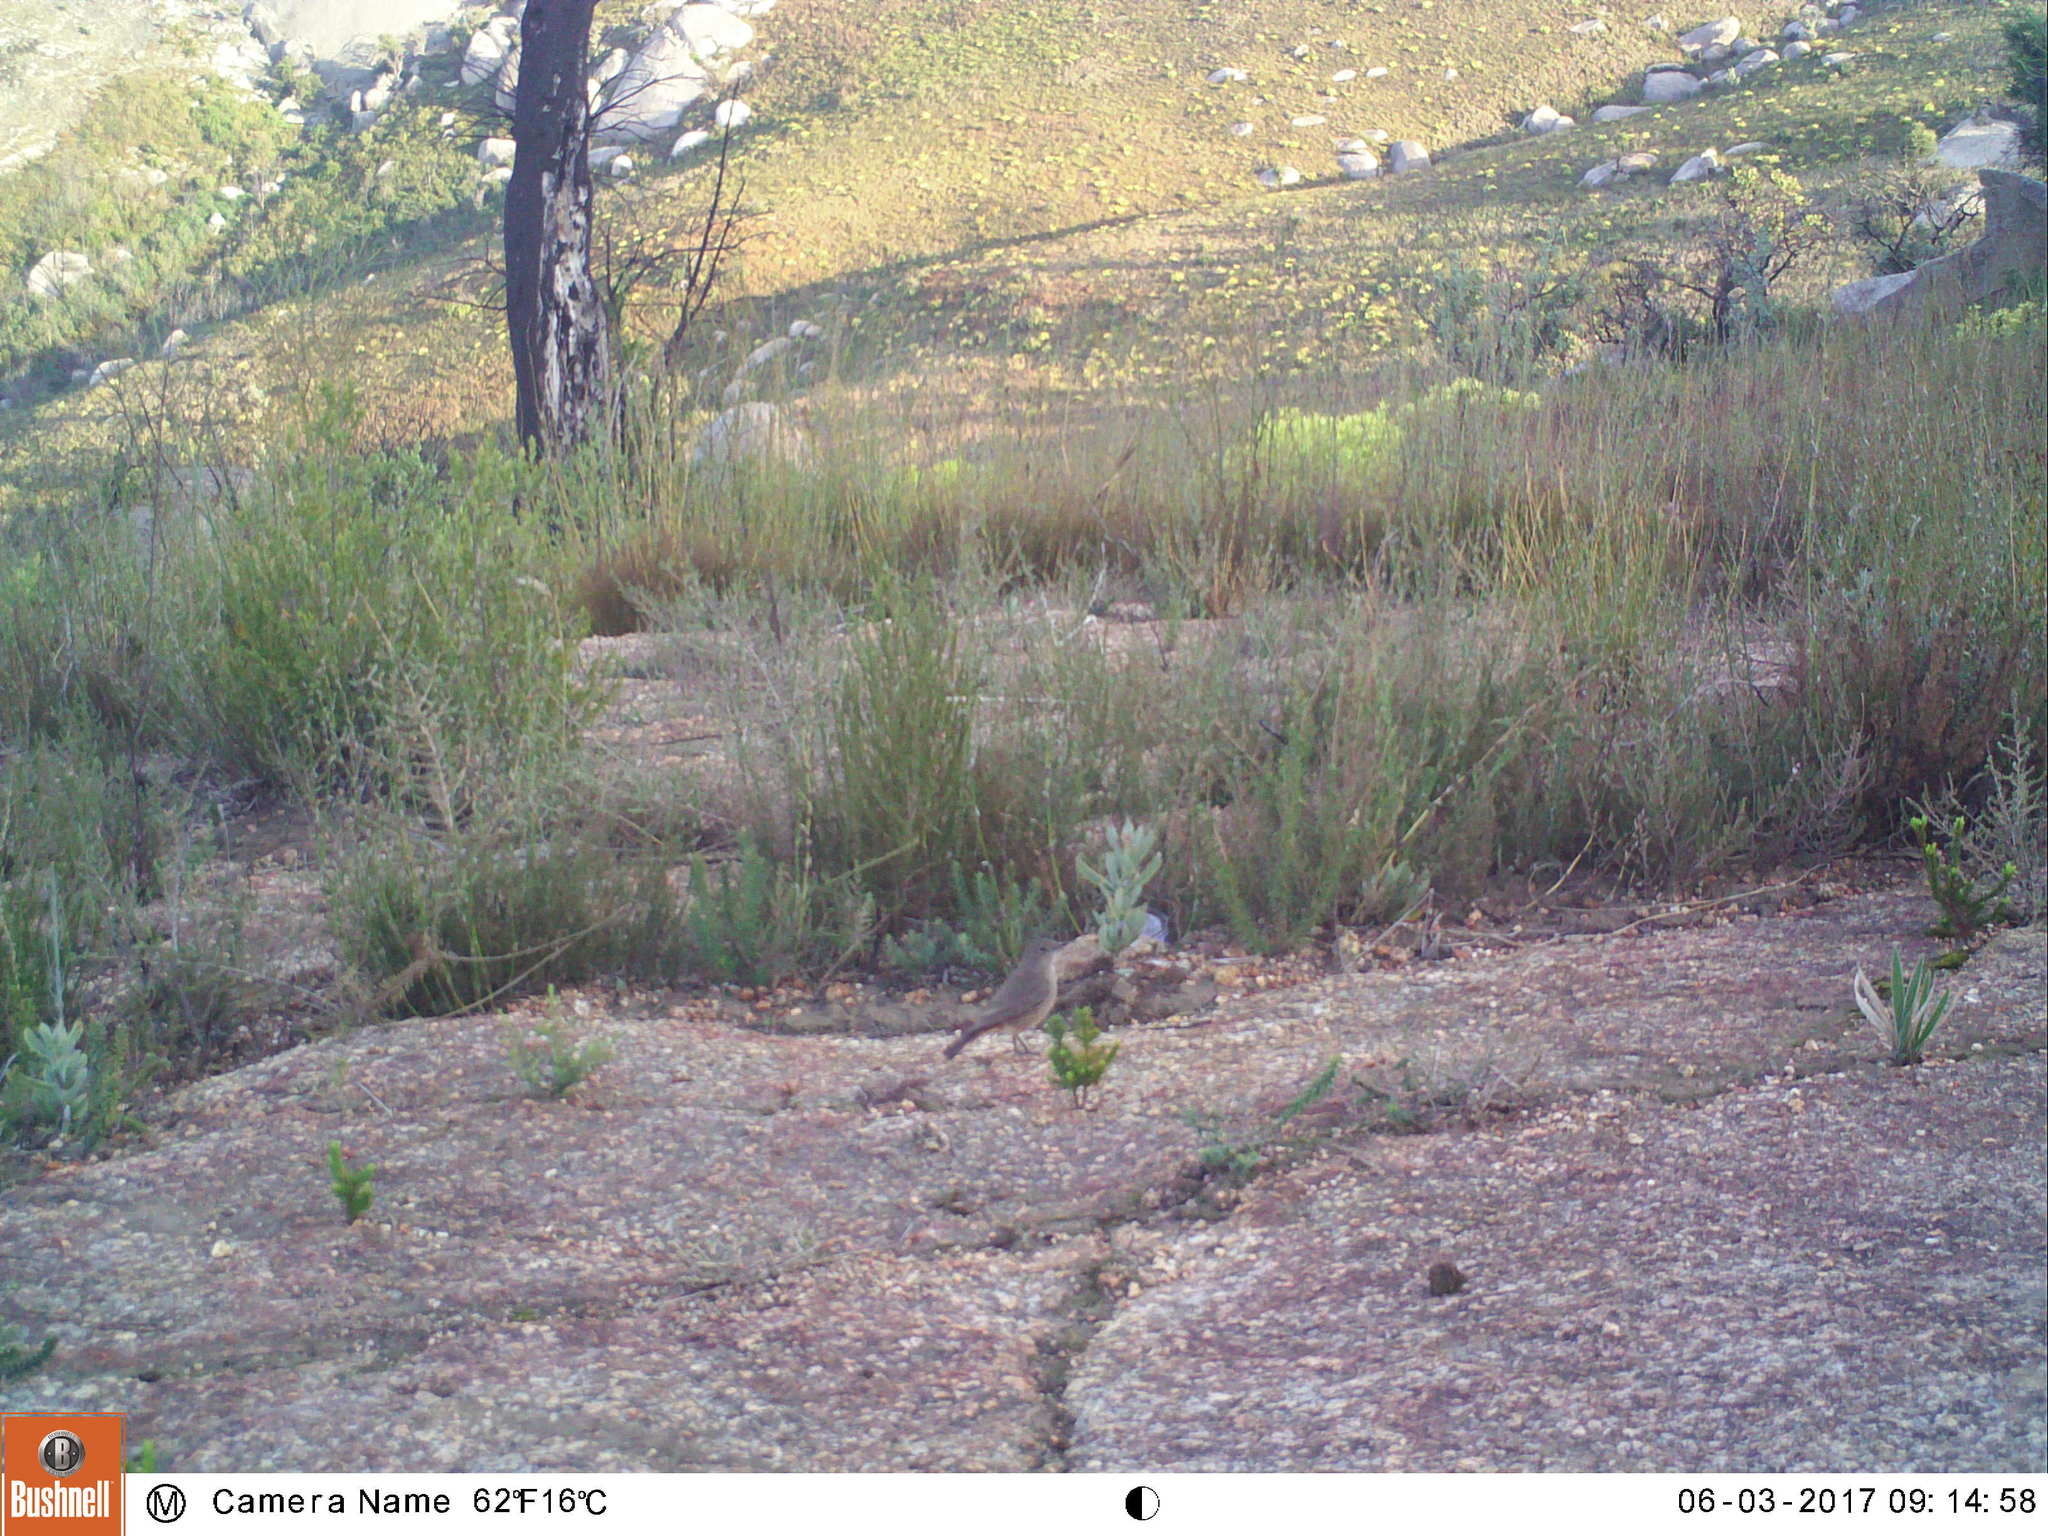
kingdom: Animalia
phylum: Chordata
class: Aves
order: Passeriformes
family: Muscicapidae
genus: Oenanthe
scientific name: Oenanthe familiaris
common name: Familiar chat
